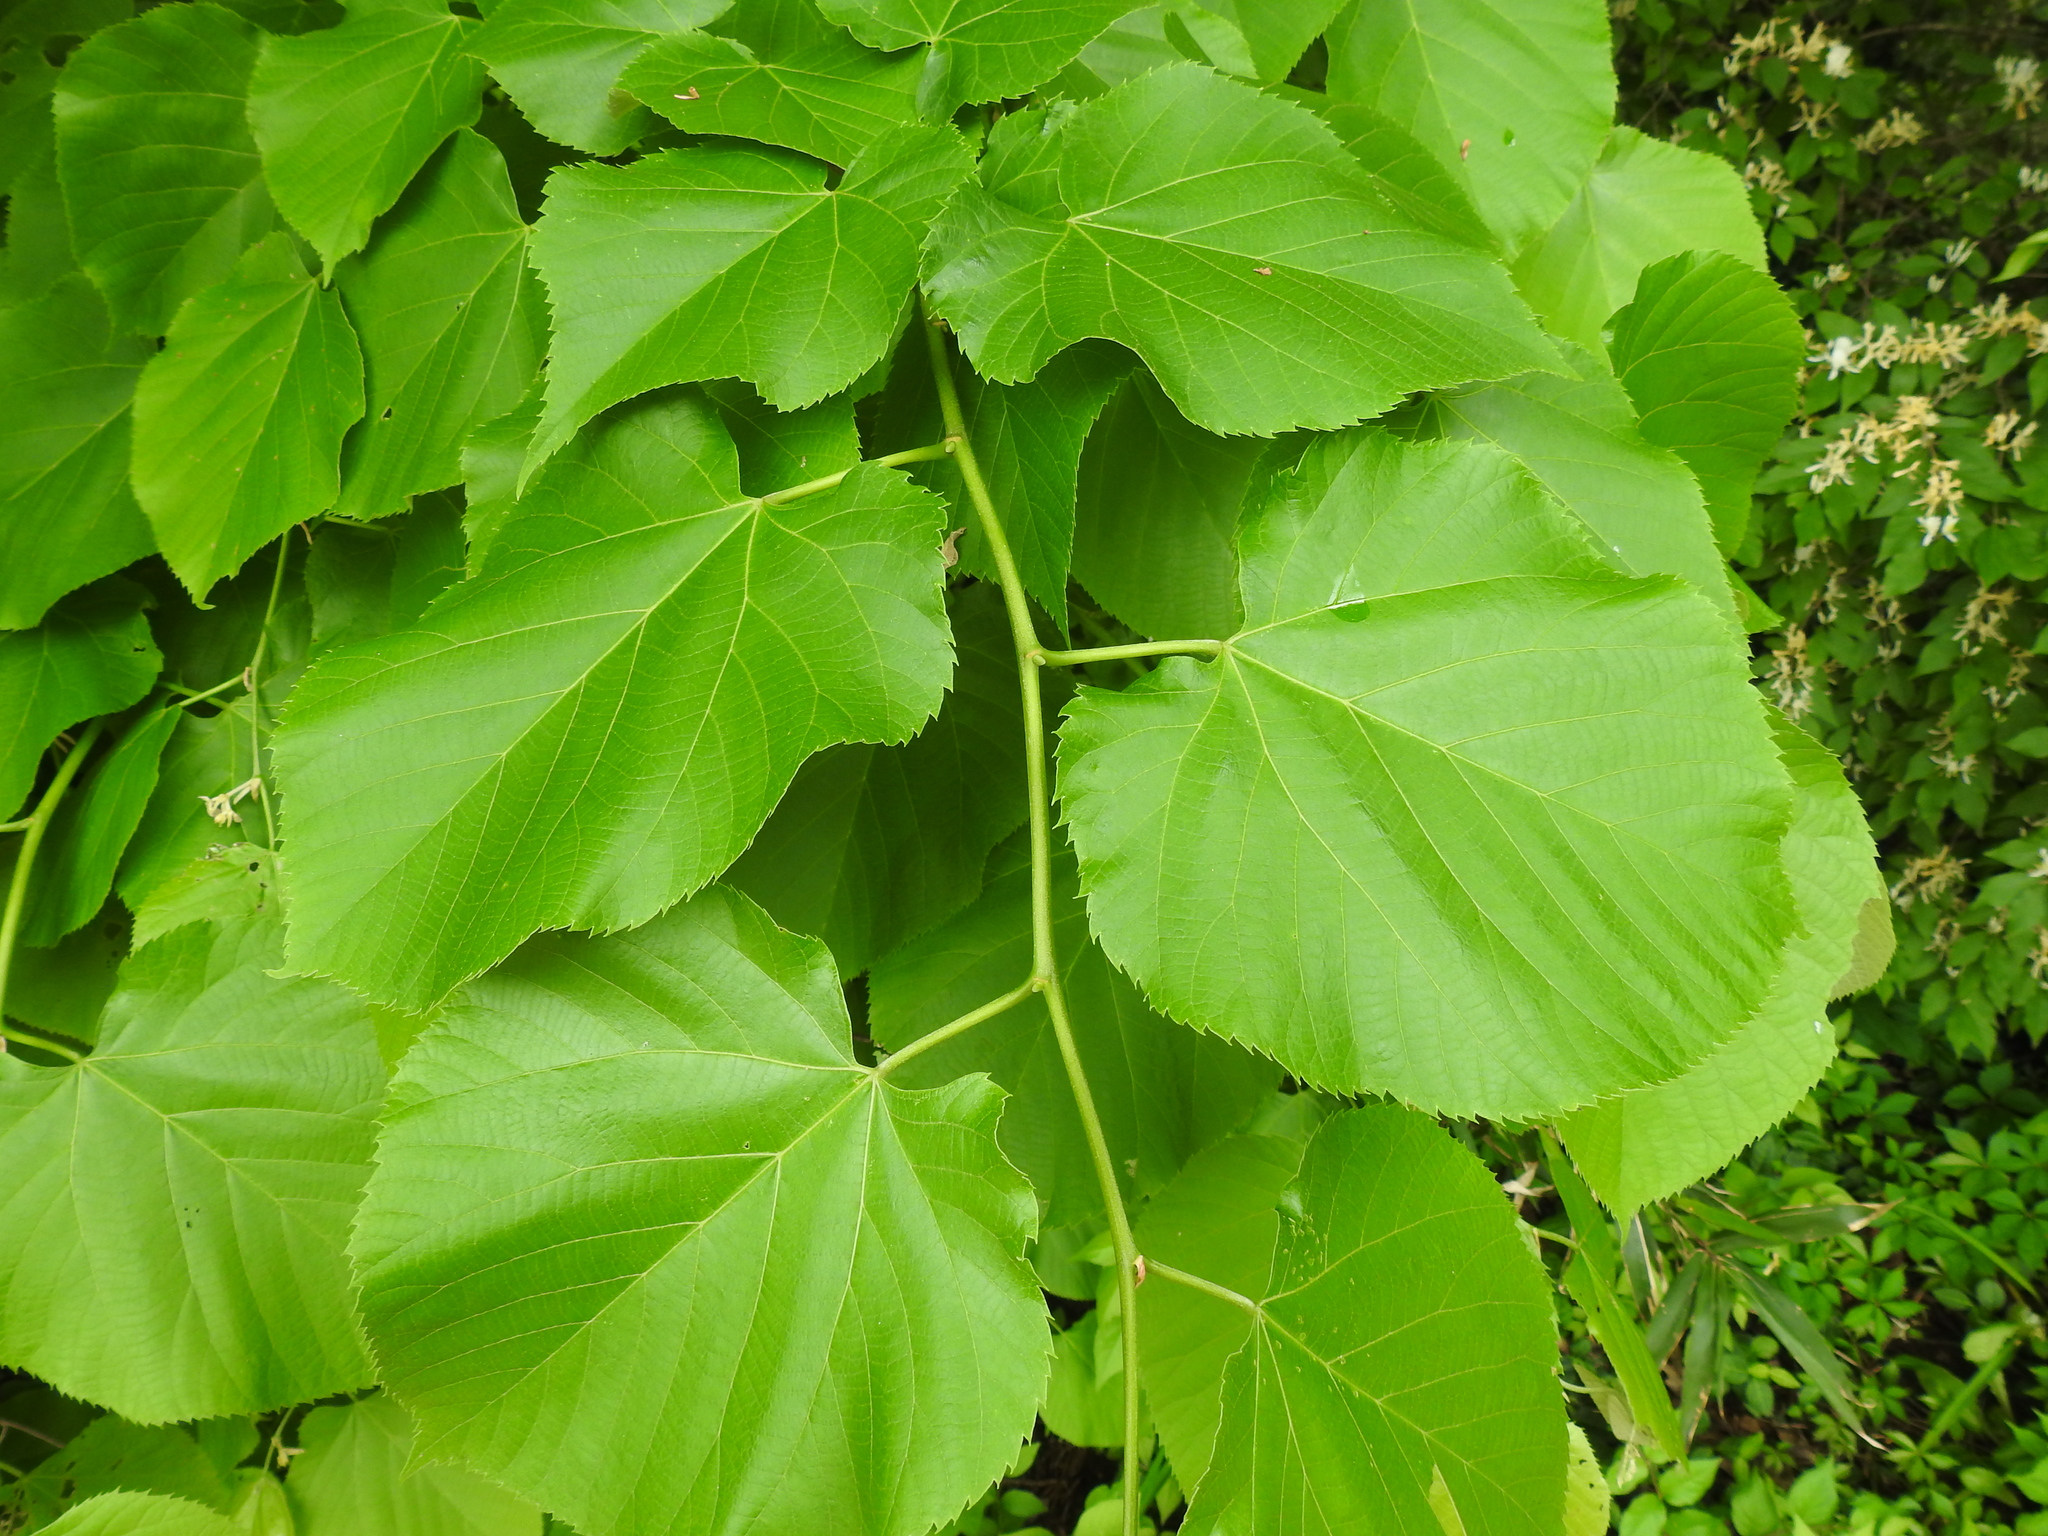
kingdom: Plantae
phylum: Tracheophyta
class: Magnoliopsida
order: Malvales
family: Malvaceae
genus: Tilia
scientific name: Tilia americana
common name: Basswood
